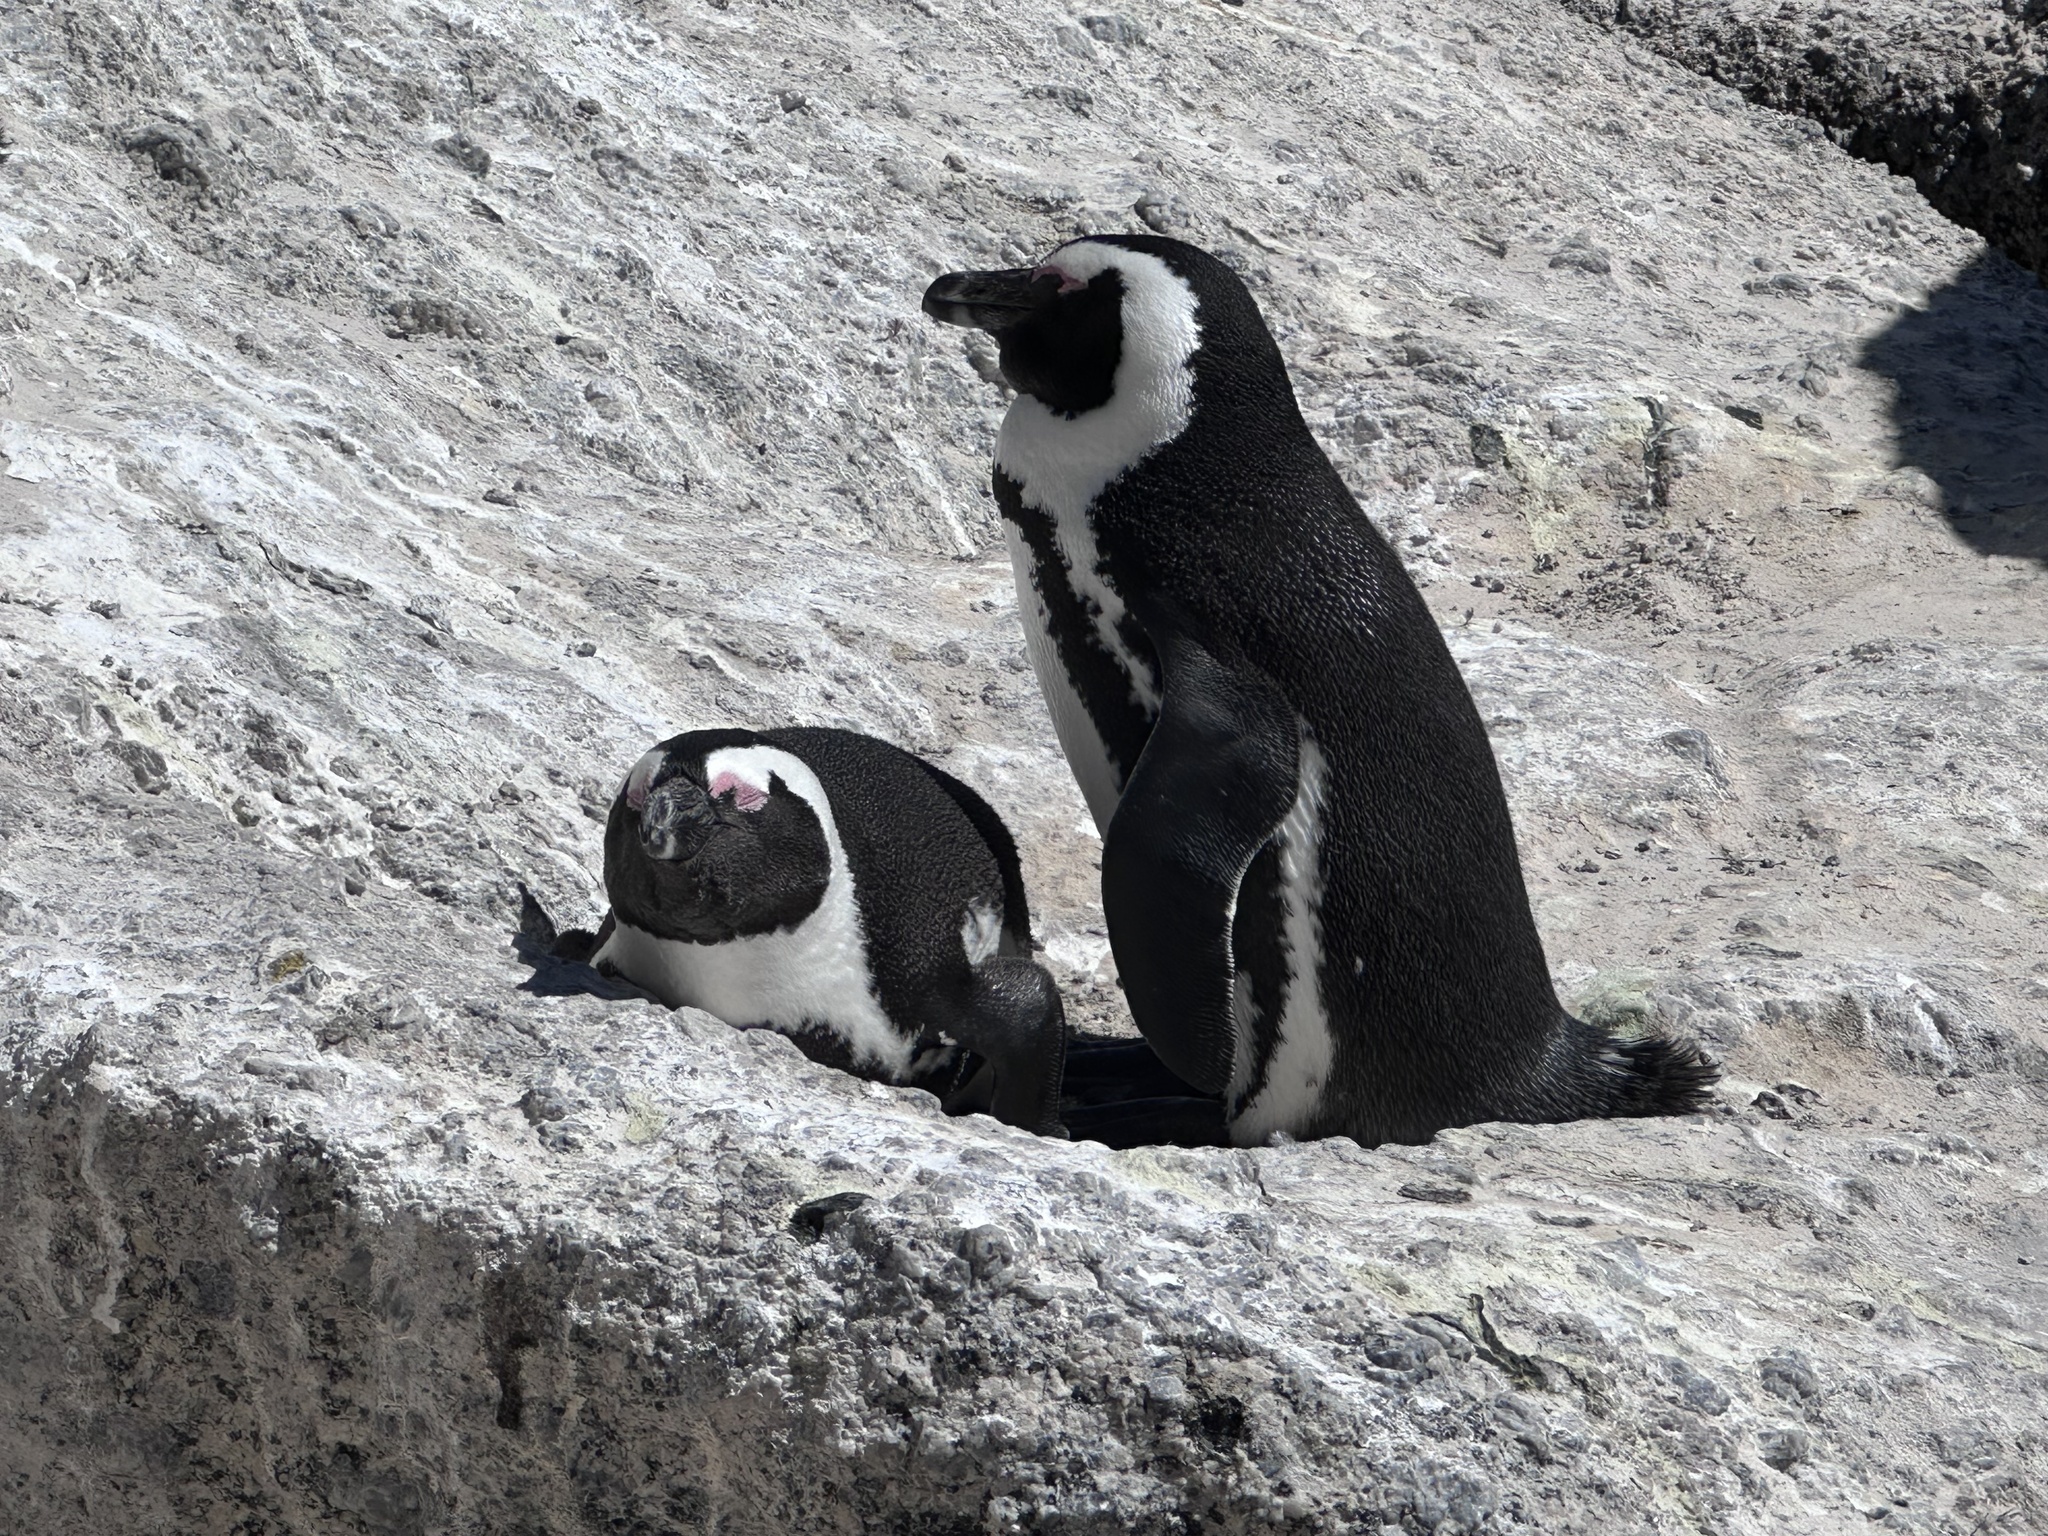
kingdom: Animalia
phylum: Chordata
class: Aves
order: Sphenisciformes
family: Spheniscidae
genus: Spheniscus
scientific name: Spheniscus demersus
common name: African penguin
